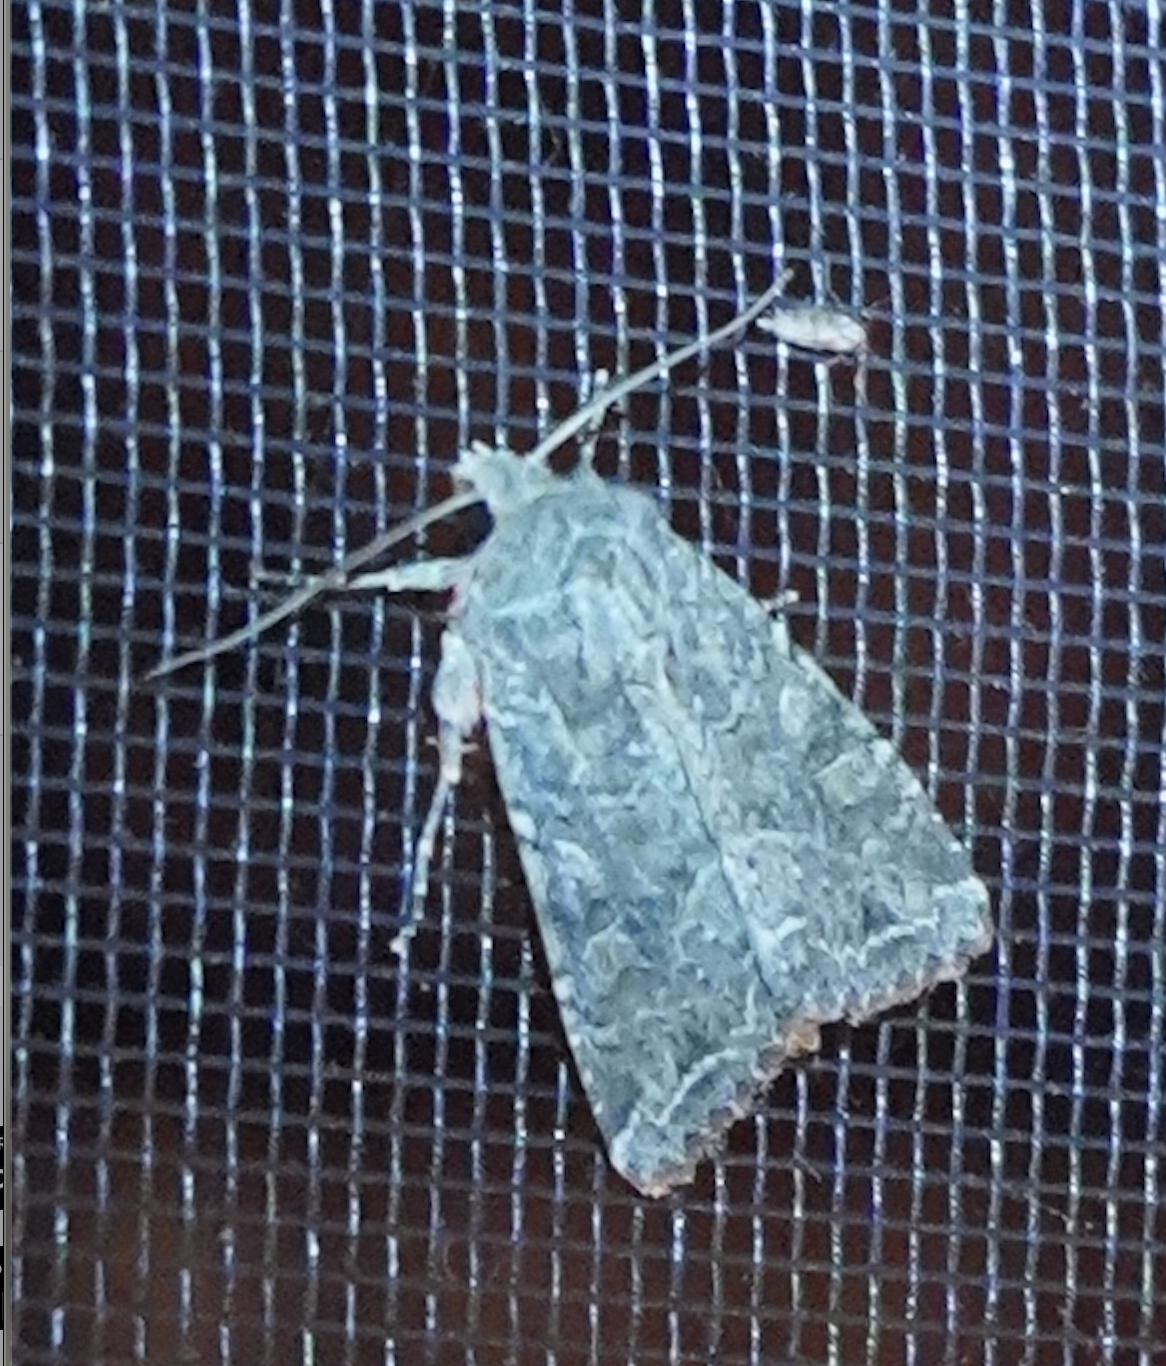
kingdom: Animalia
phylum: Arthropoda
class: Insecta
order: Lepidoptera
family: Noctuidae
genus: Apamea
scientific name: Apamea devastator
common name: Glassy cutworm
